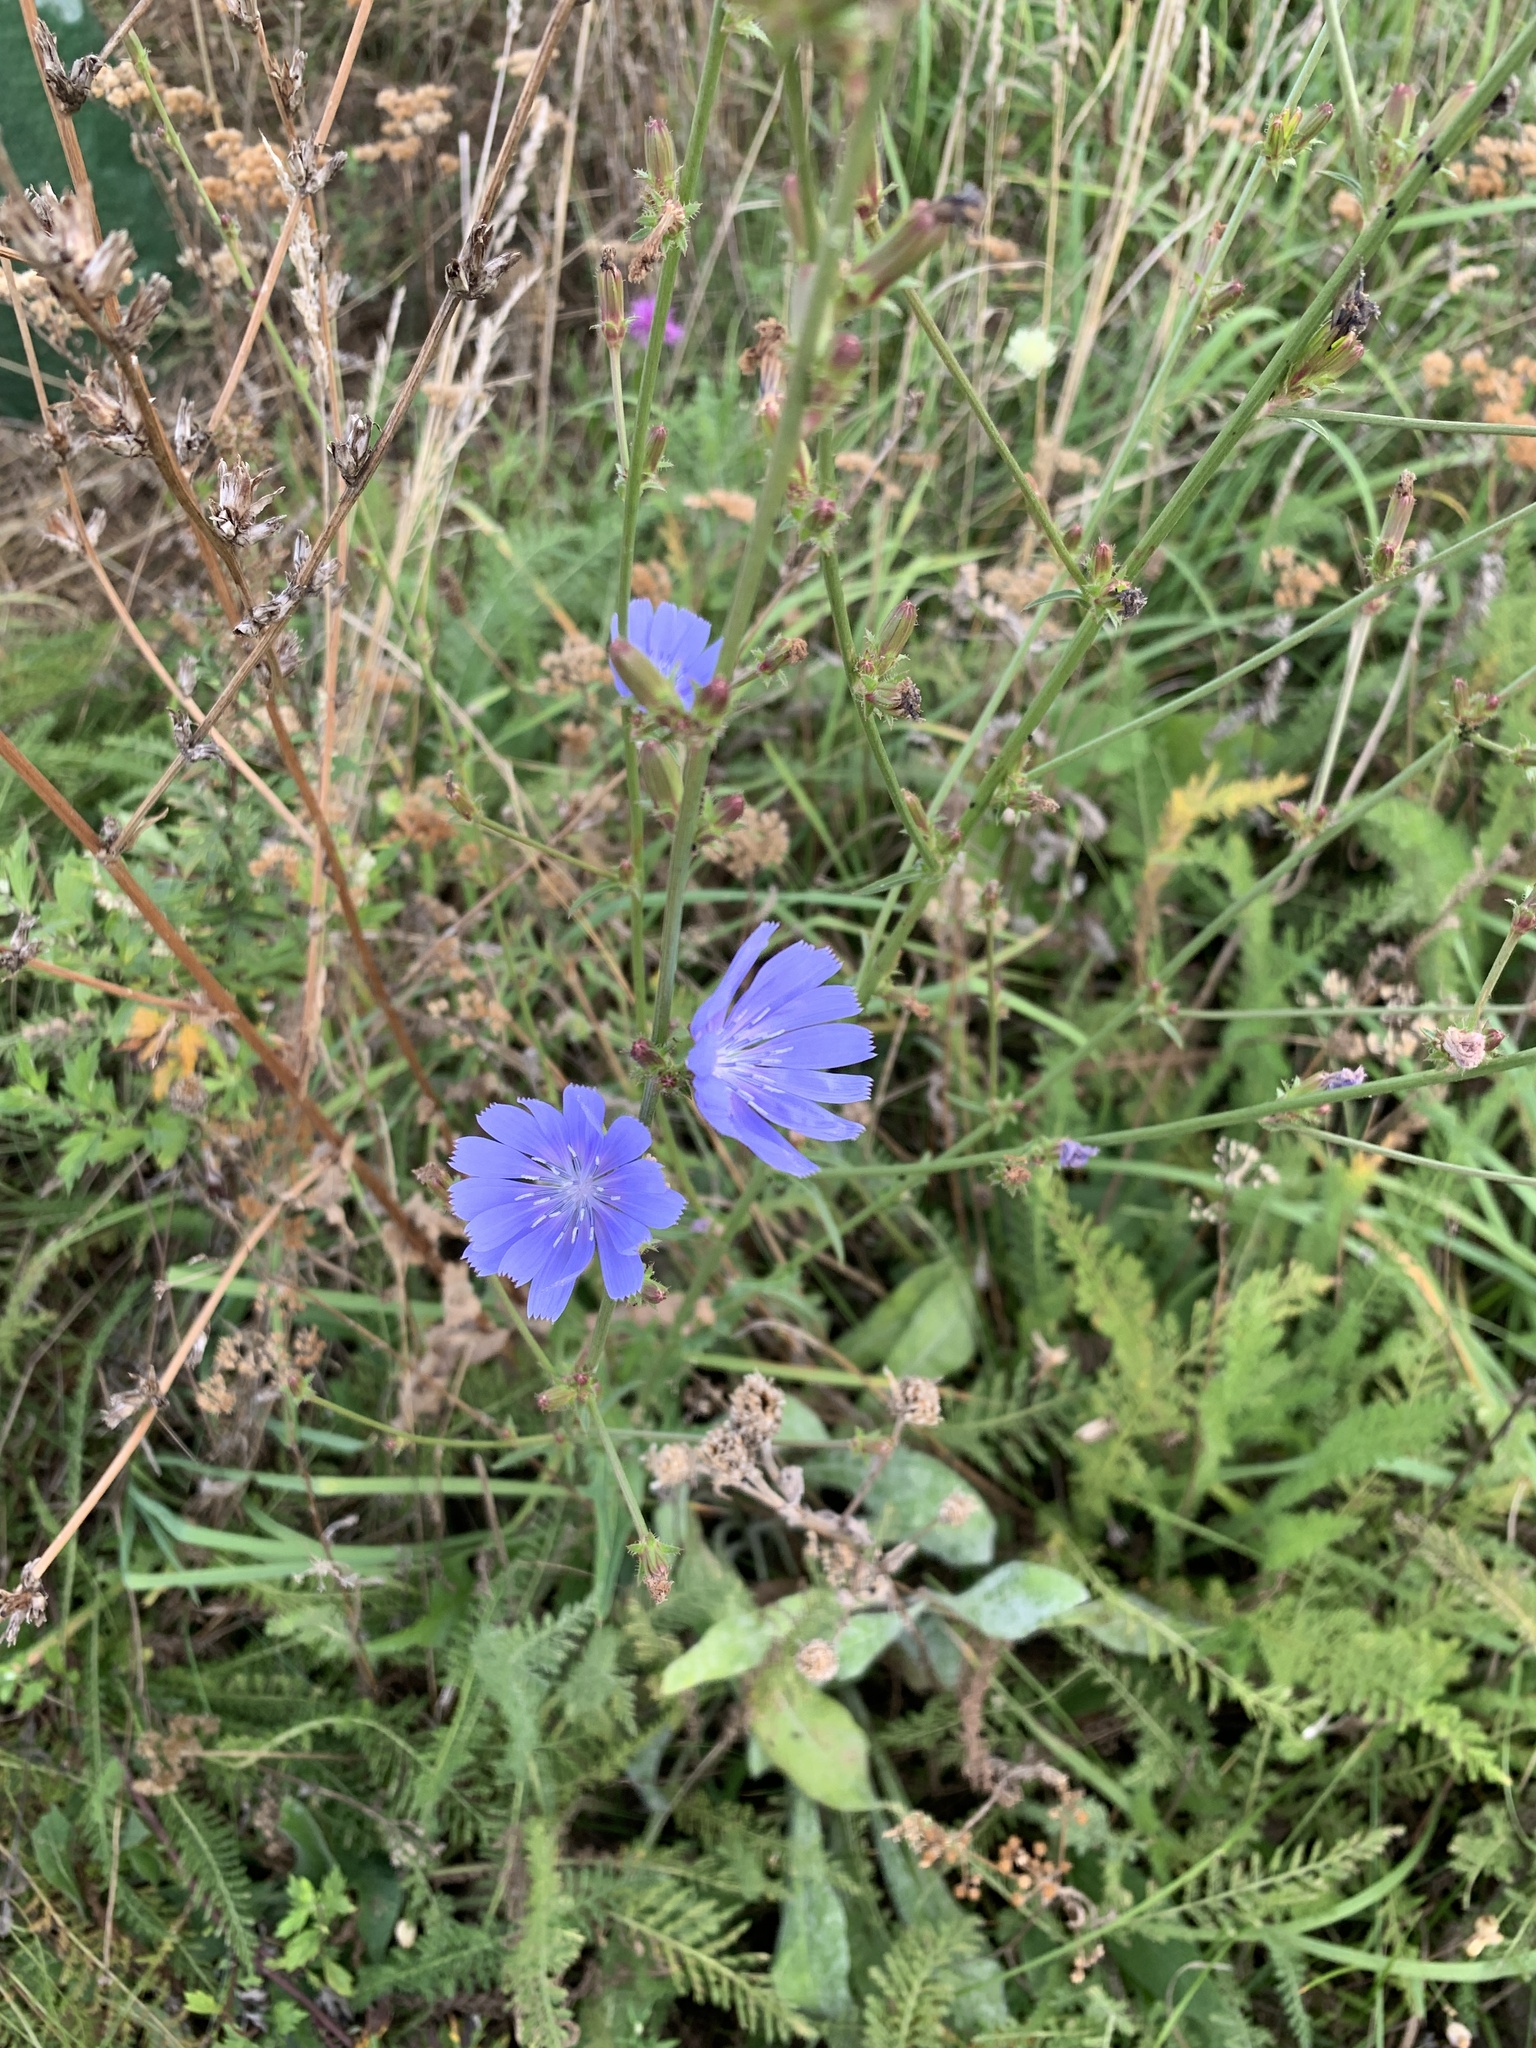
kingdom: Plantae
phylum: Tracheophyta
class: Magnoliopsida
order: Asterales
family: Asteraceae
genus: Cichorium
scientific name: Cichorium intybus
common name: Chicory
